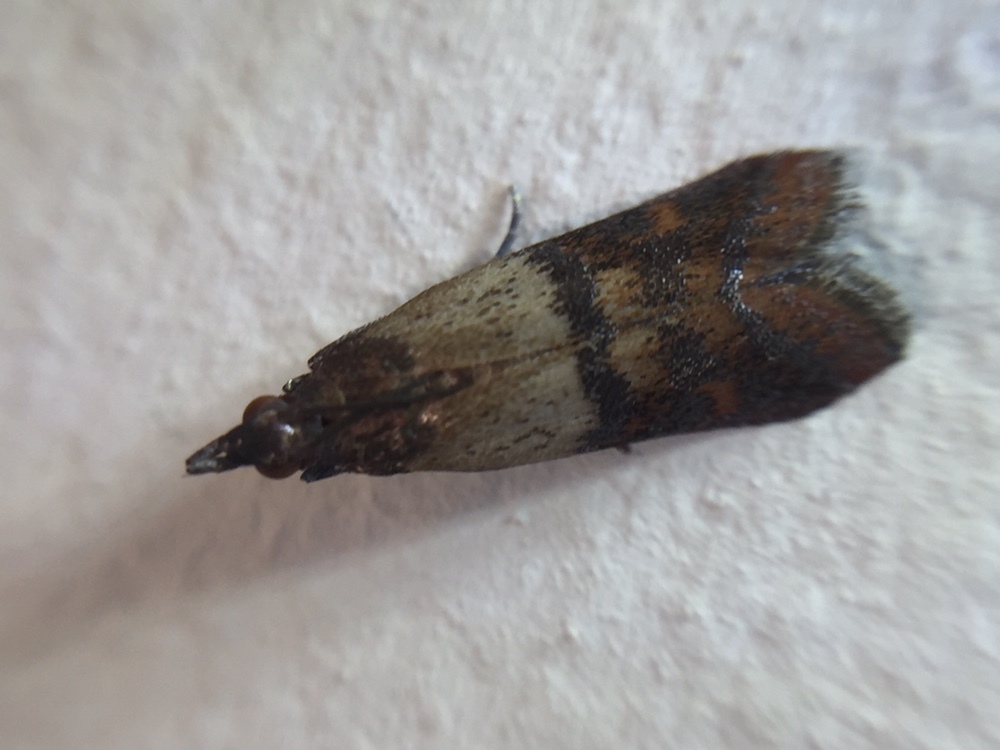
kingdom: Animalia
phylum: Arthropoda
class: Insecta
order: Lepidoptera
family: Pyralidae
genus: Plodia
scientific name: Plodia interpunctella
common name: Indian meal moth
